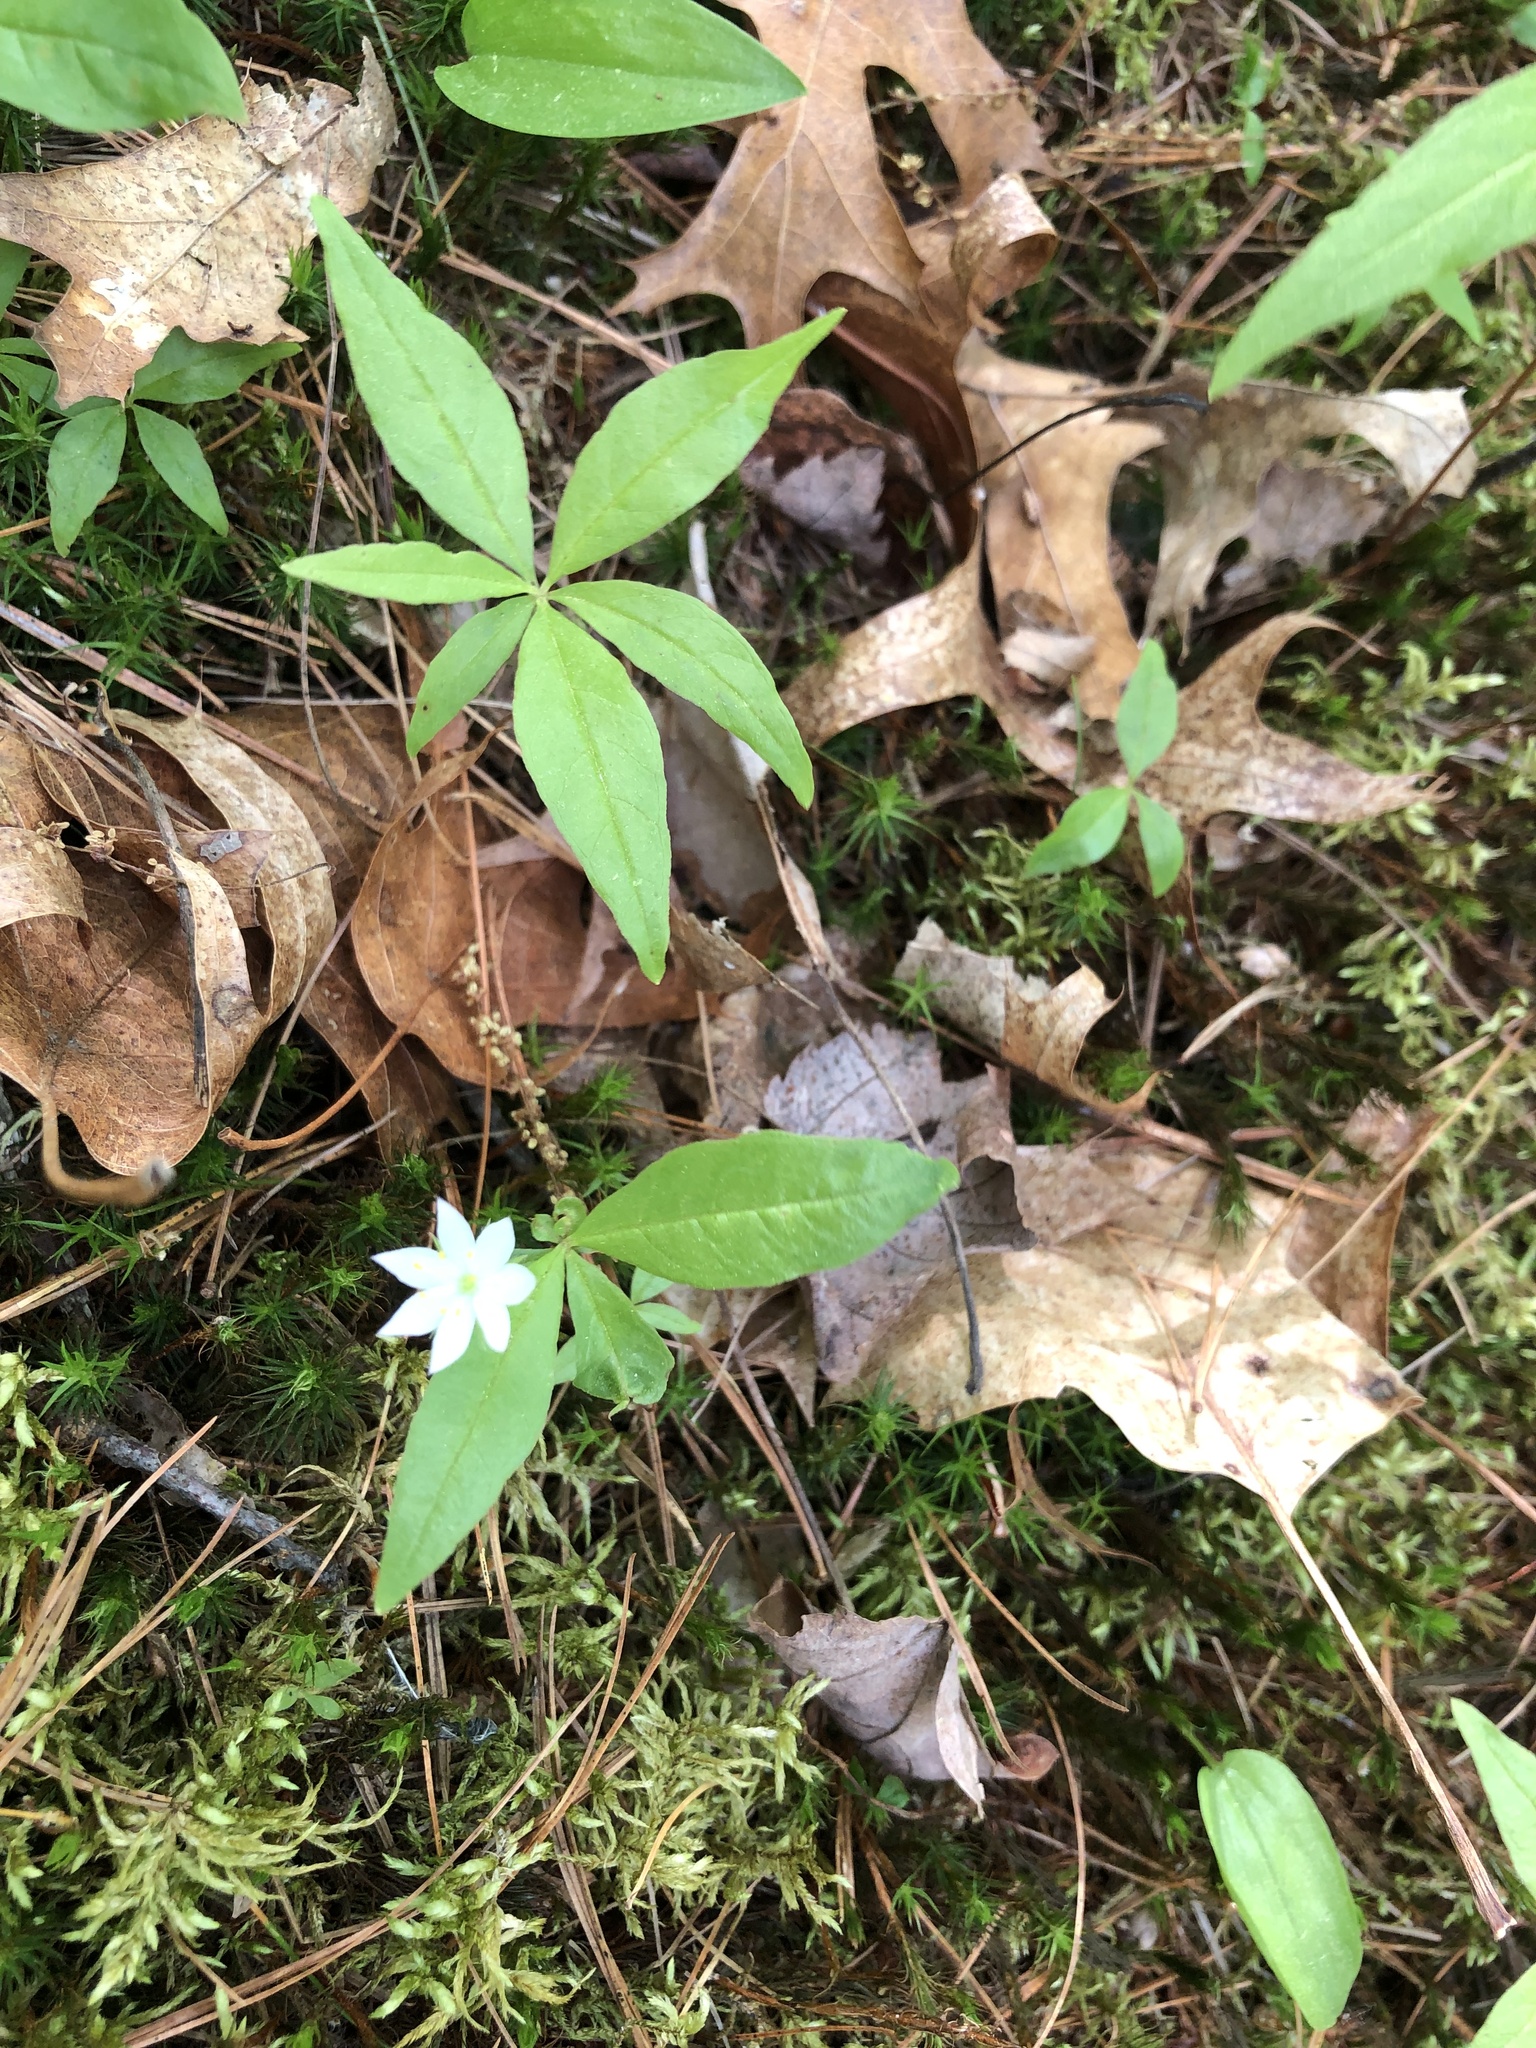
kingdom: Plantae
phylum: Tracheophyta
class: Magnoliopsida
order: Ericales
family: Primulaceae
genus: Lysimachia
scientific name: Lysimachia borealis
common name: American starflower
